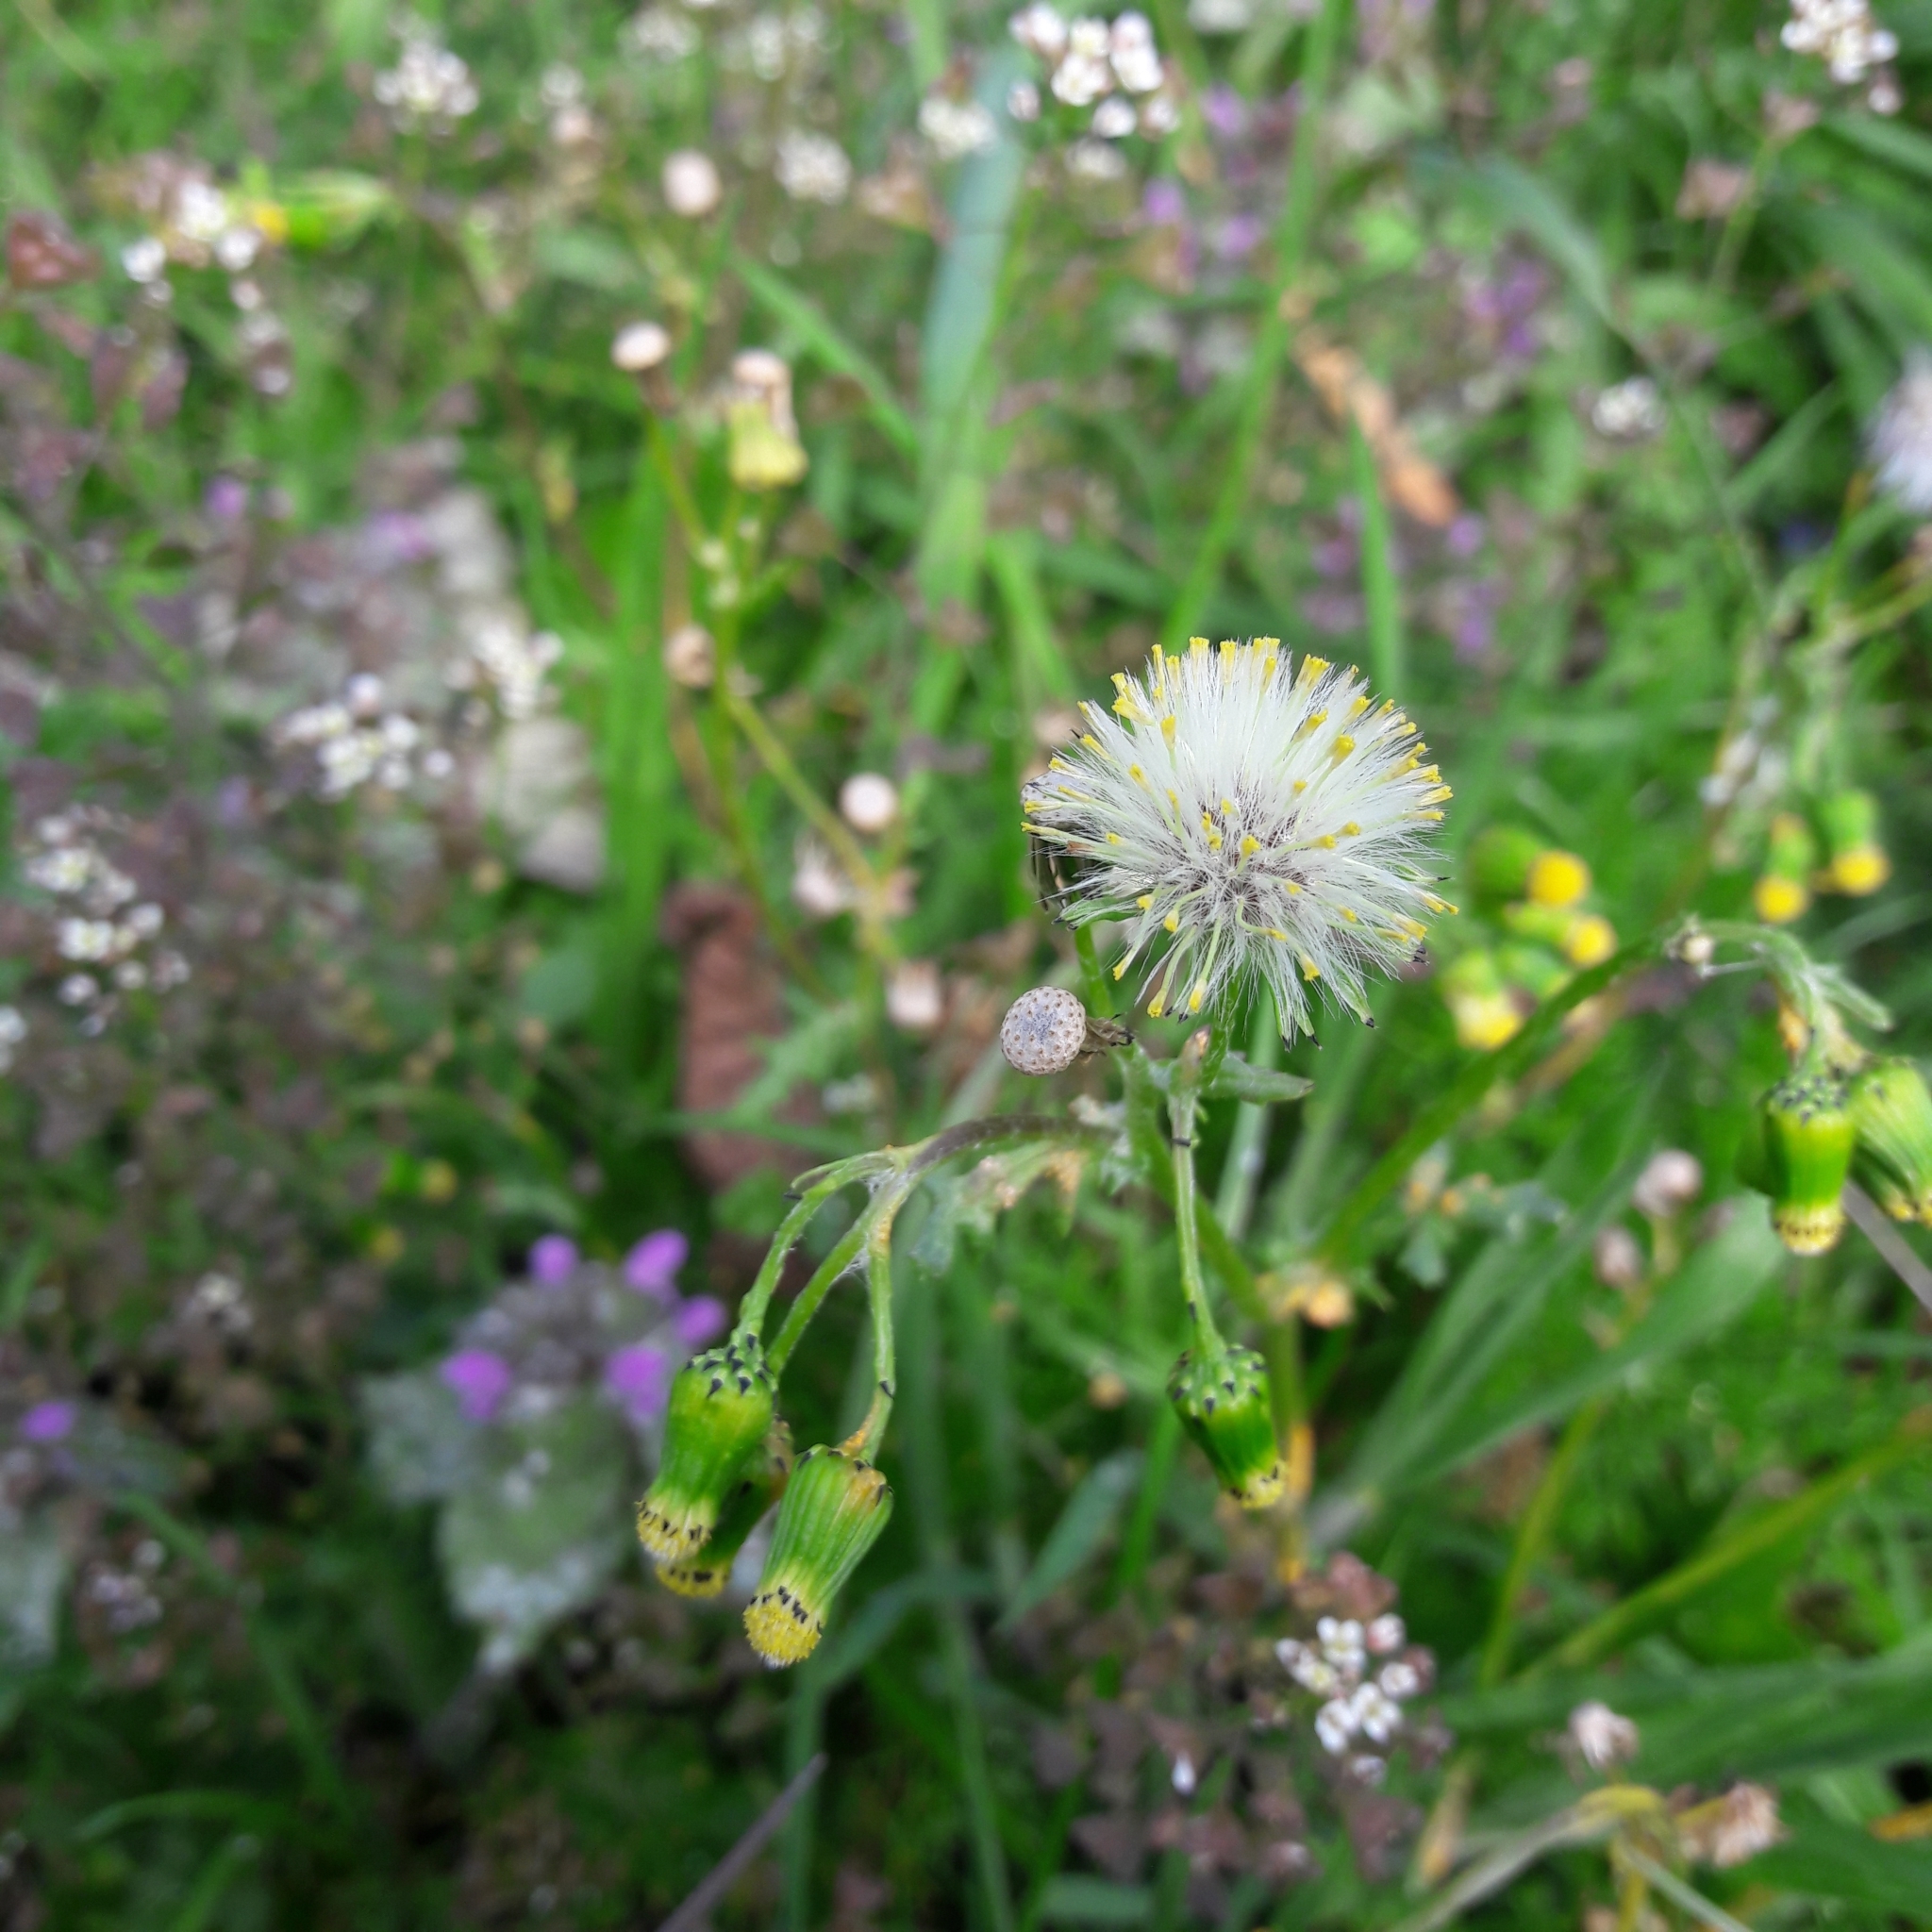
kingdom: Plantae
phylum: Tracheophyta
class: Magnoliopsida
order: Asterales
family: Asteraceae
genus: Senecio
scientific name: Senecio vulgaris
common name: Old-man-in-the-spring
